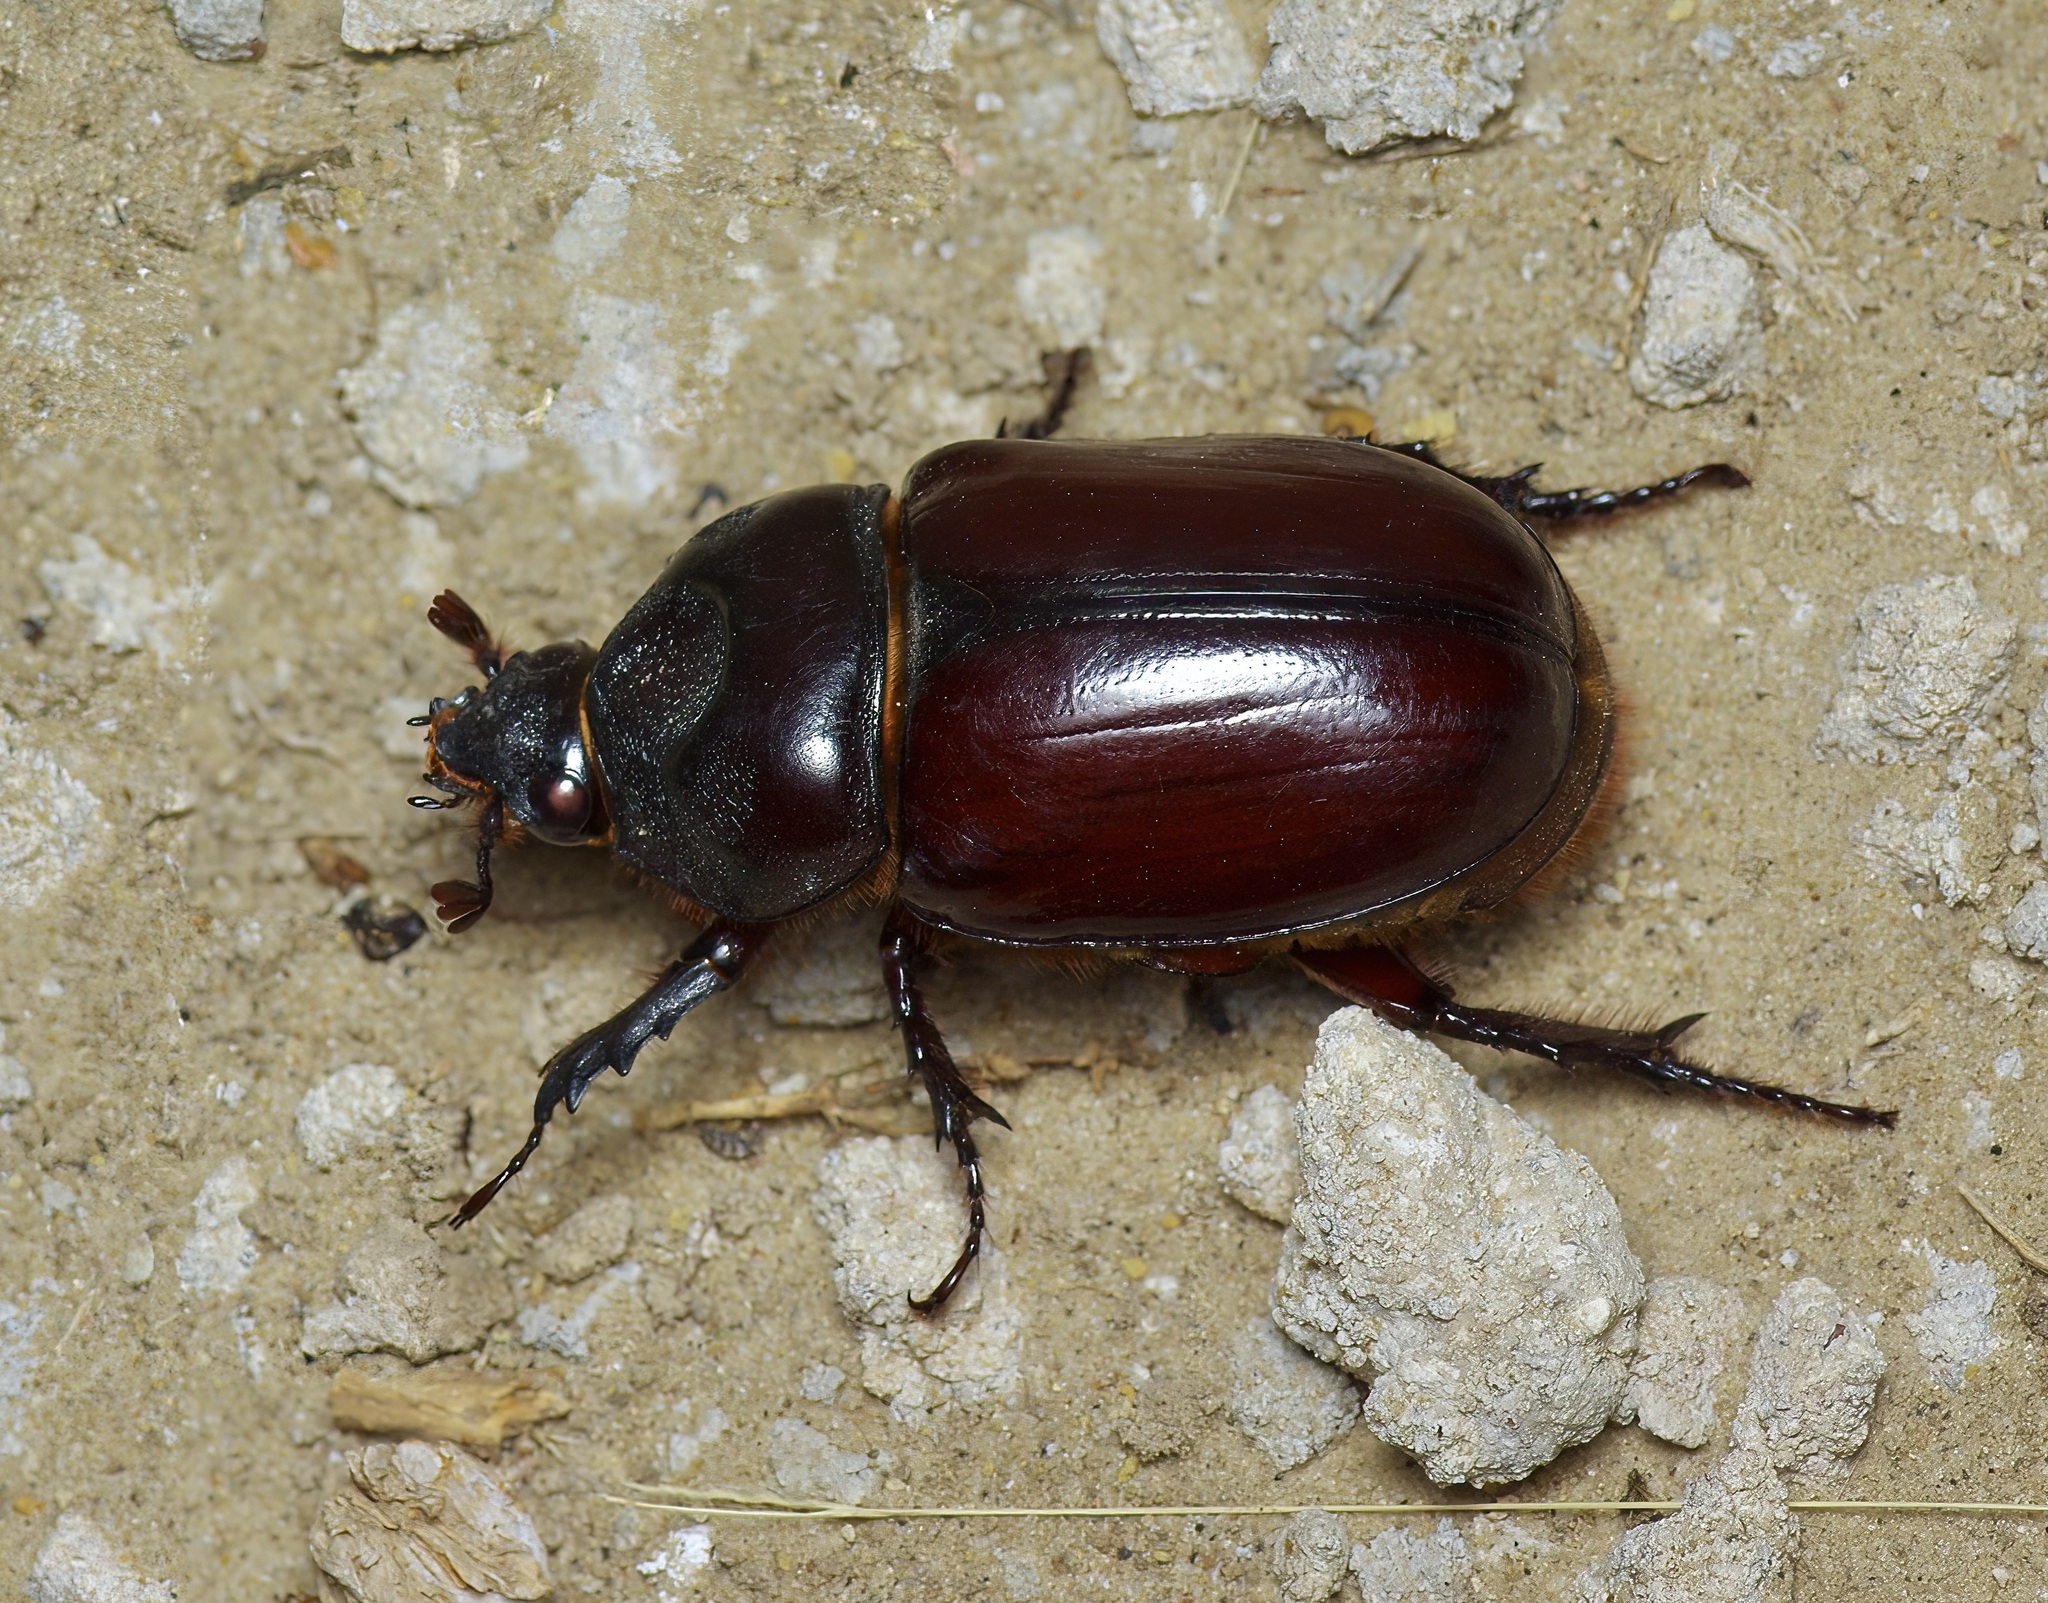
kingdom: Animalia
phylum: Arthropoda
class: Insecta
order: Coleoptera
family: Scarabaeidae
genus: Strategus
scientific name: Strategus aloeus
